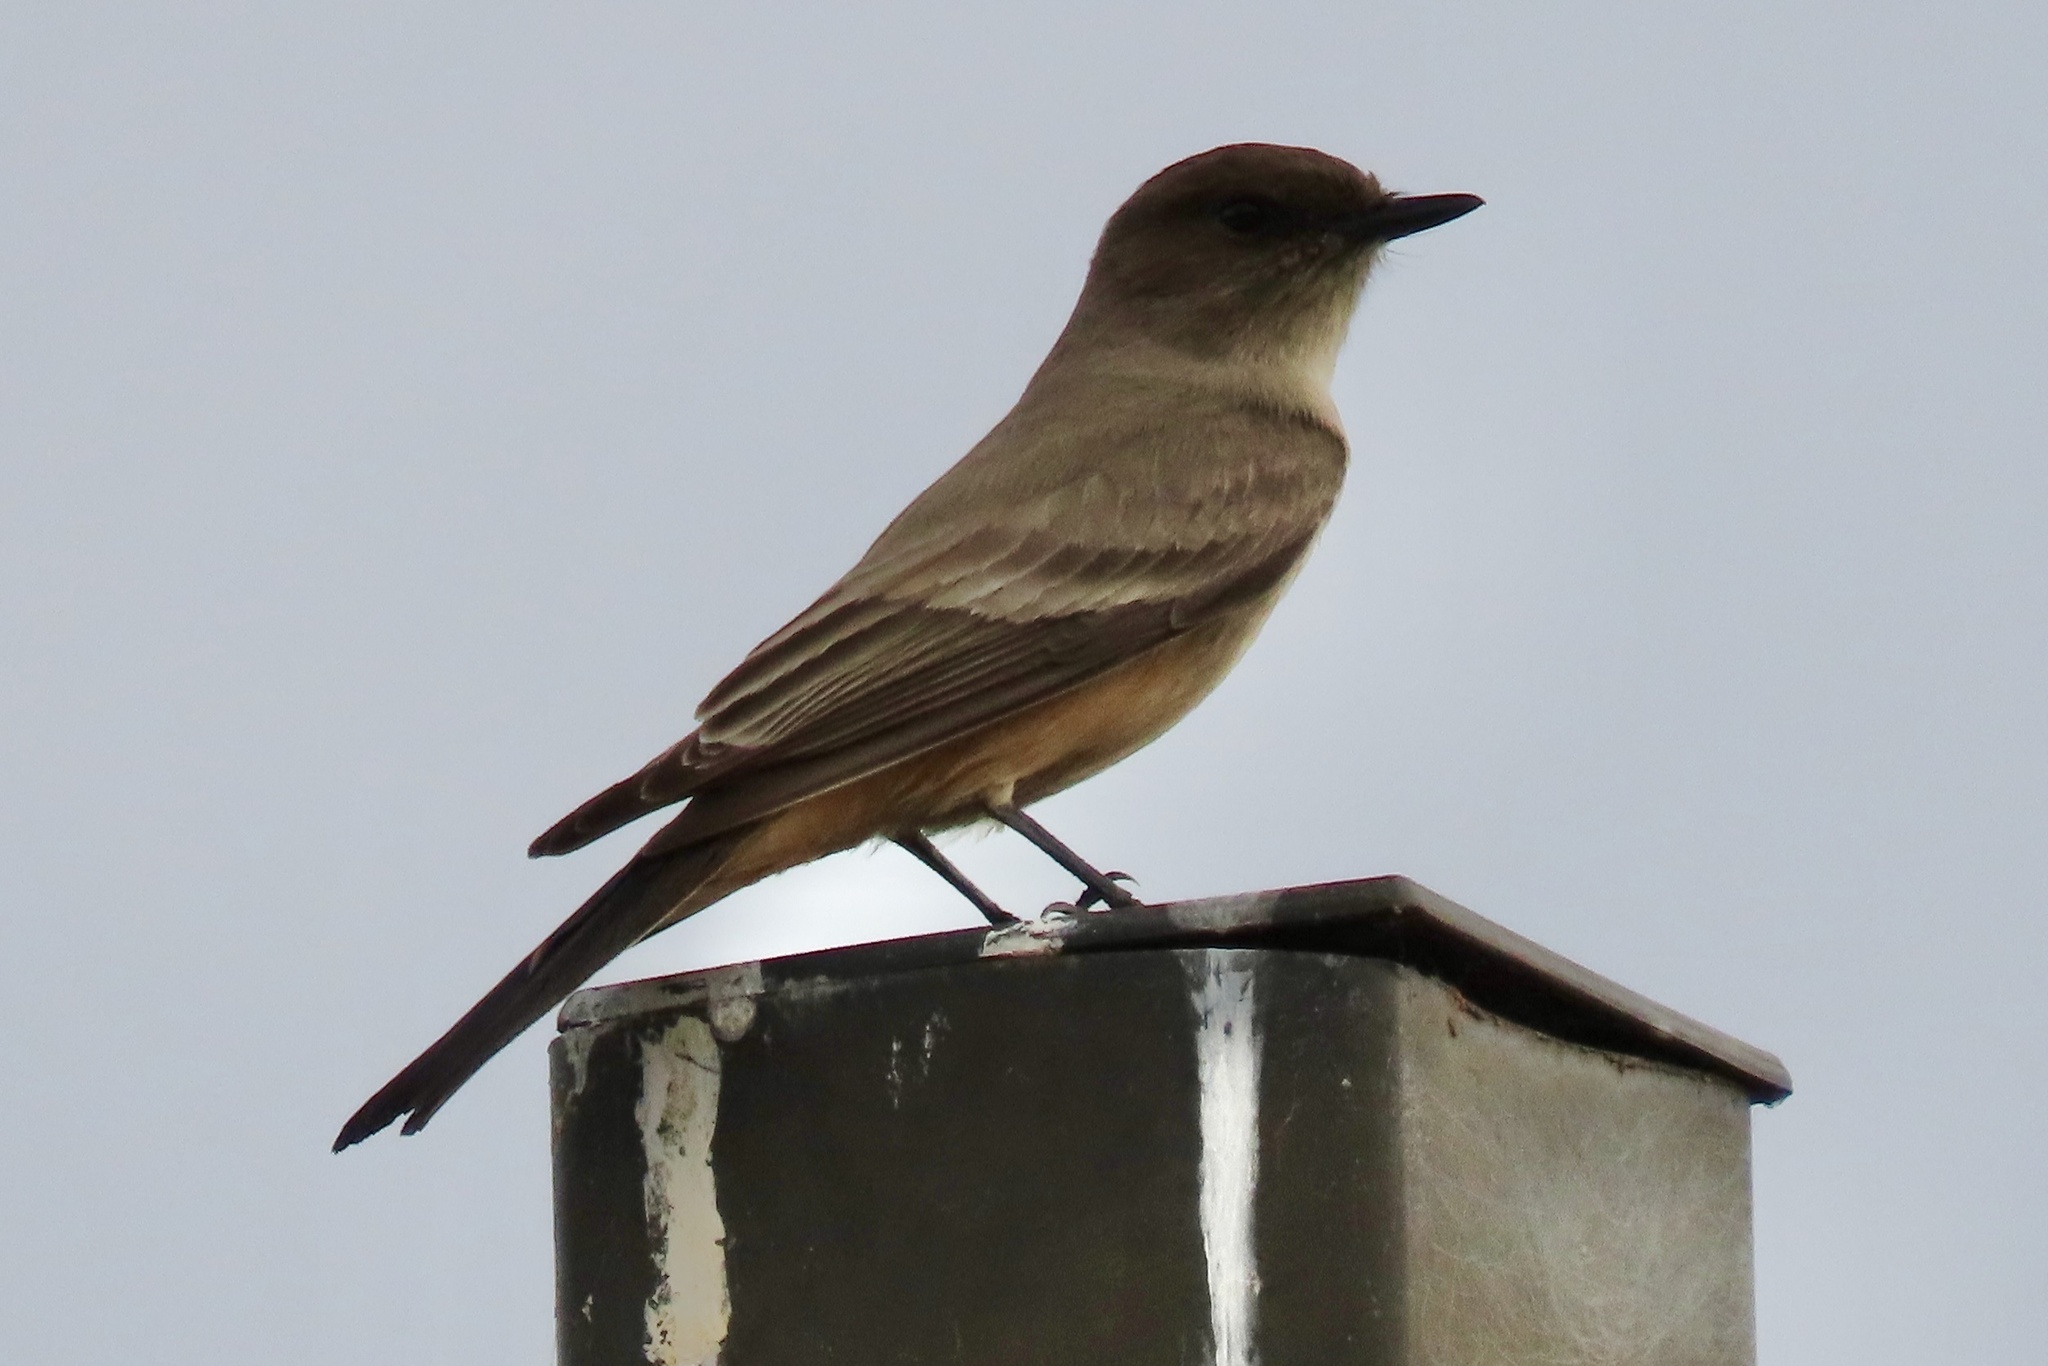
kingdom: Animalia
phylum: Chordata
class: Aves
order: Passeriformes
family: Tyrannidae
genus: Sayornis
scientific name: Sayornis saya
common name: Say's phoebe
